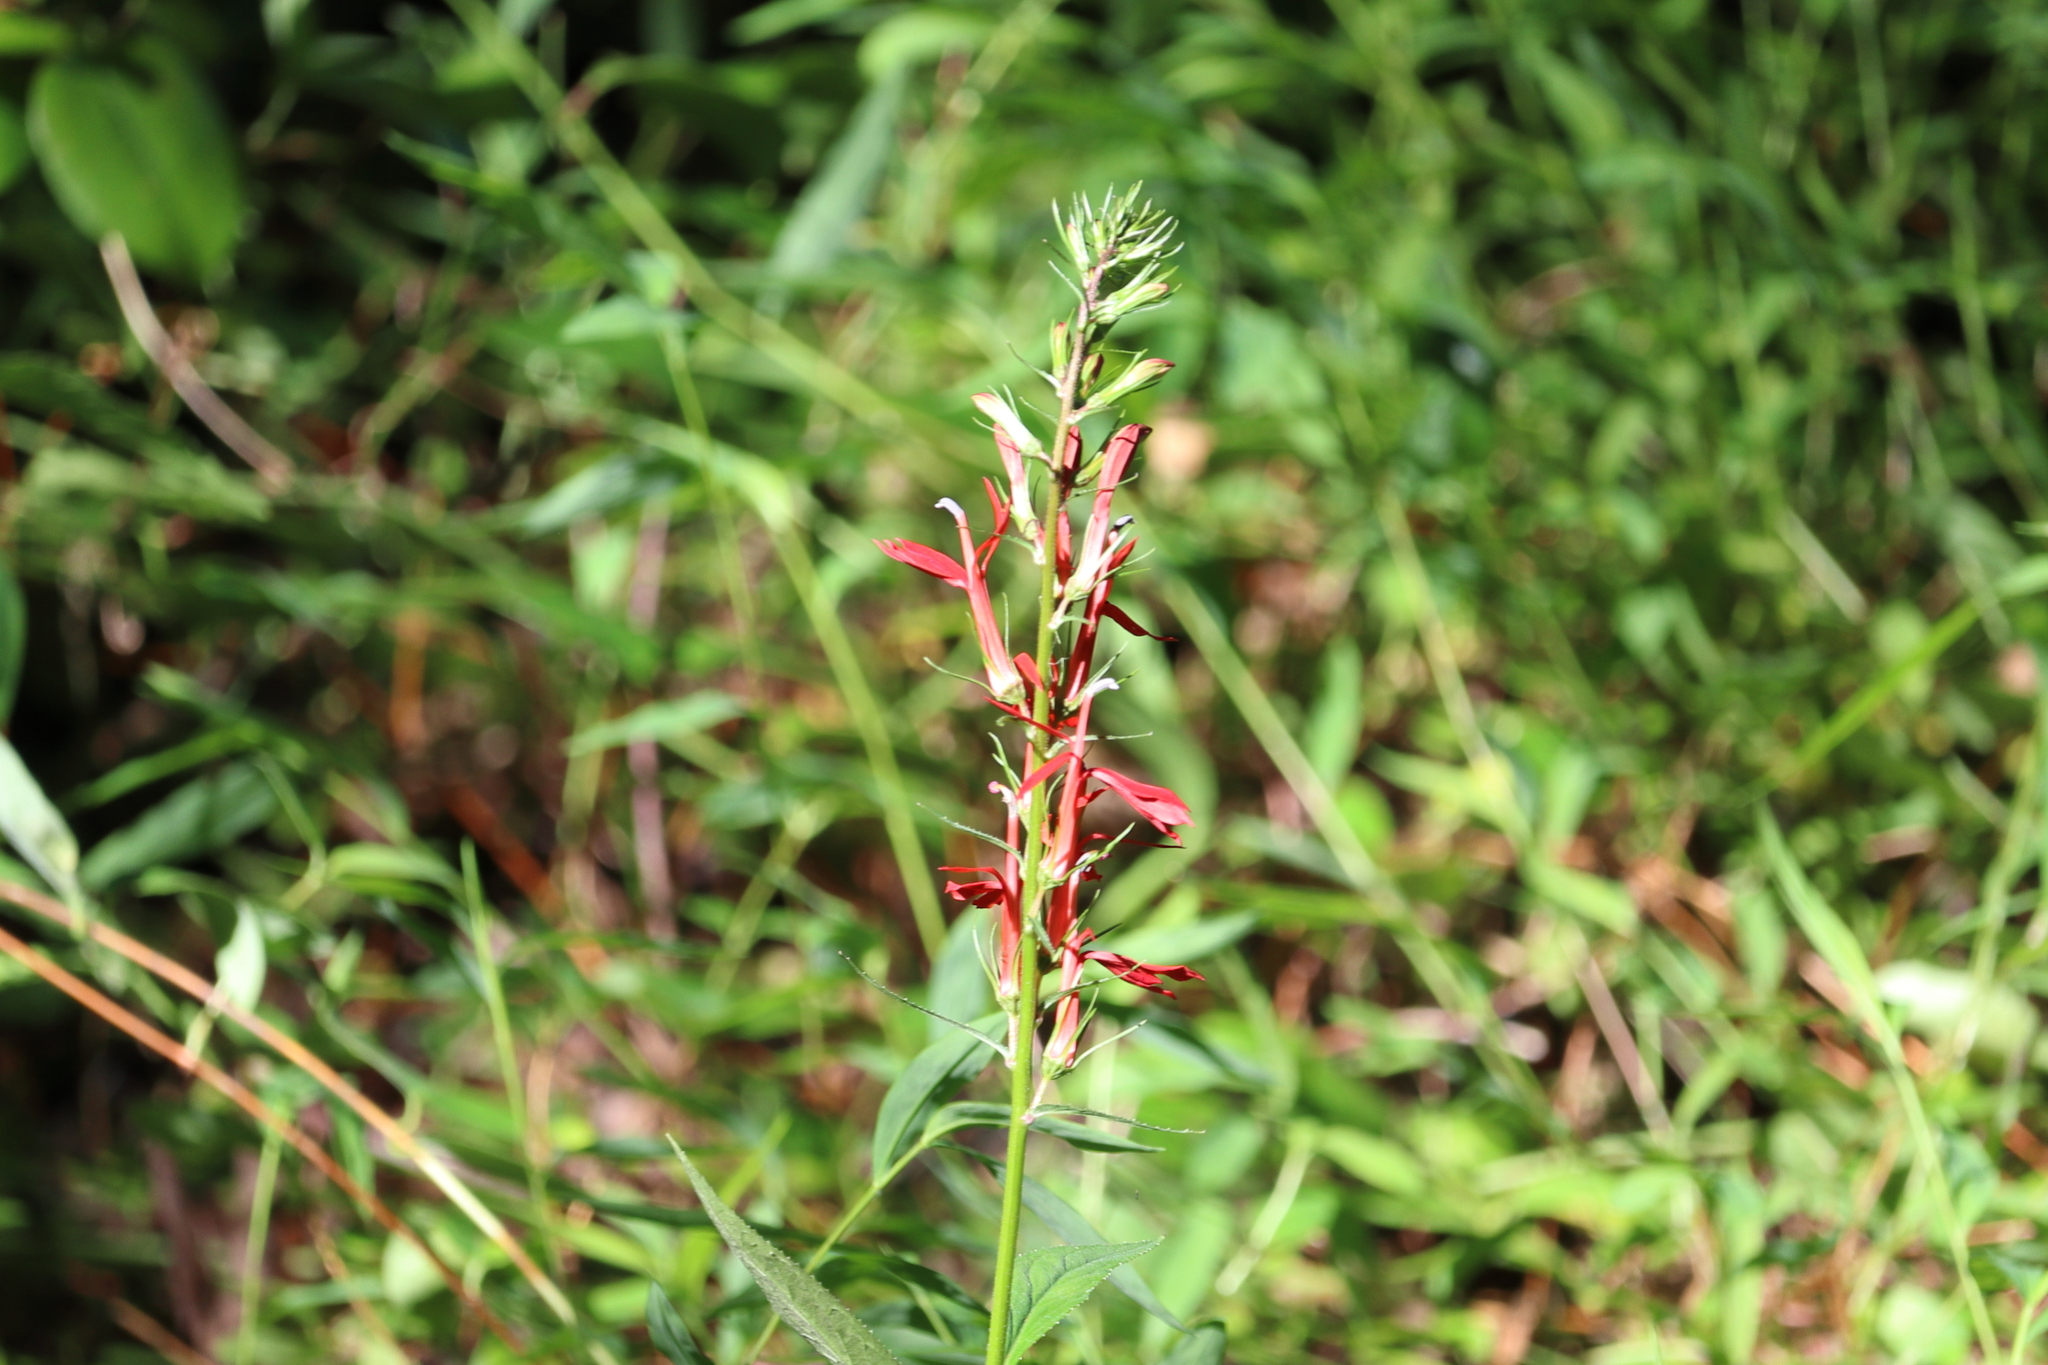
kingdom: Plantae
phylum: Tracheophyta
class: Magnoliopsida
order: Asterales
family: Campanulaceae
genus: Lobelia
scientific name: Lobelia cardinalis
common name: Cardinal flower
